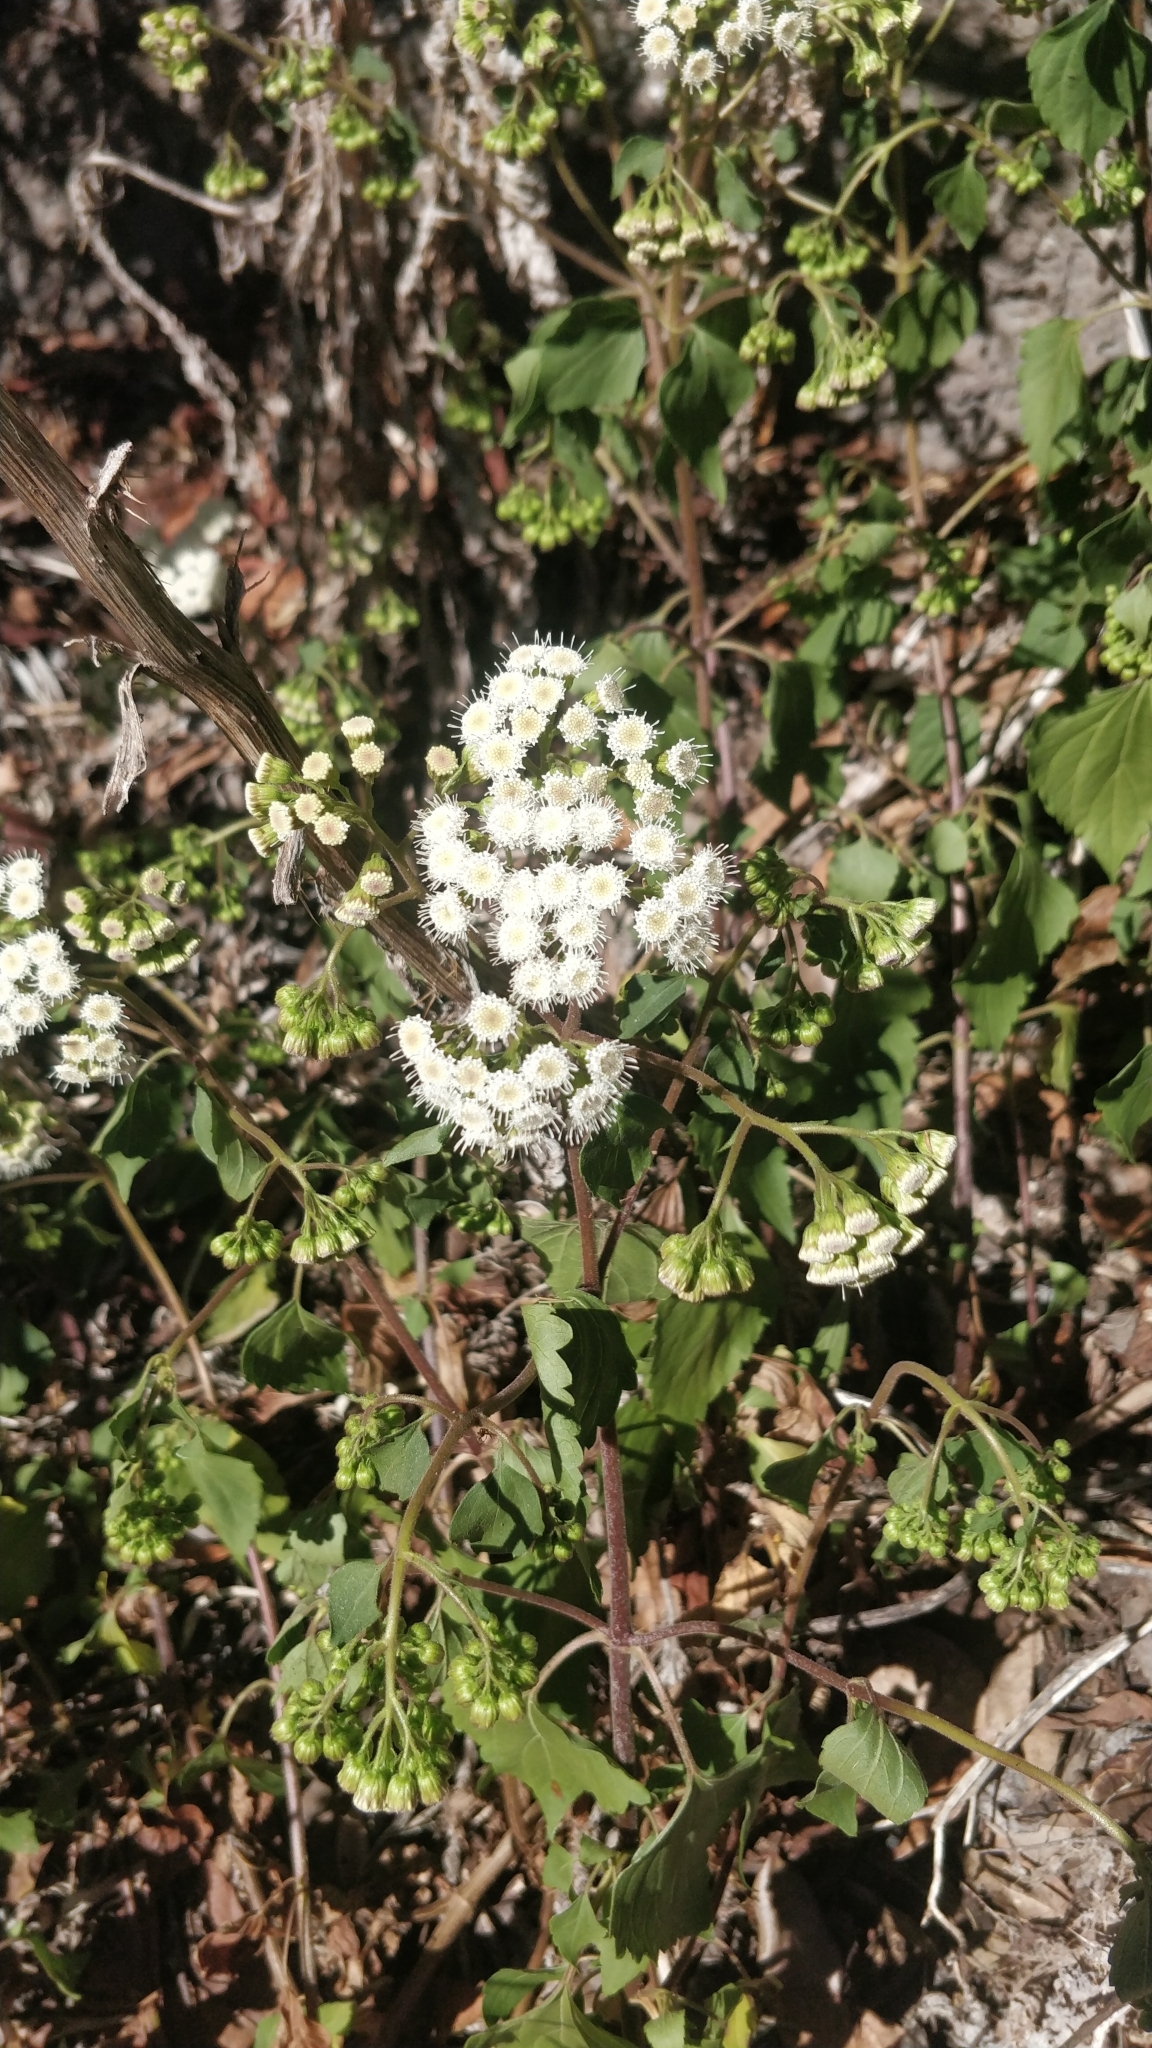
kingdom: Plantae
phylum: Tracheophyta
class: Magnoliopsida
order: Asterales
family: Asteraceae
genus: Ageratina
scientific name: Ageratina adenophora
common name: Sticky snakeroot
